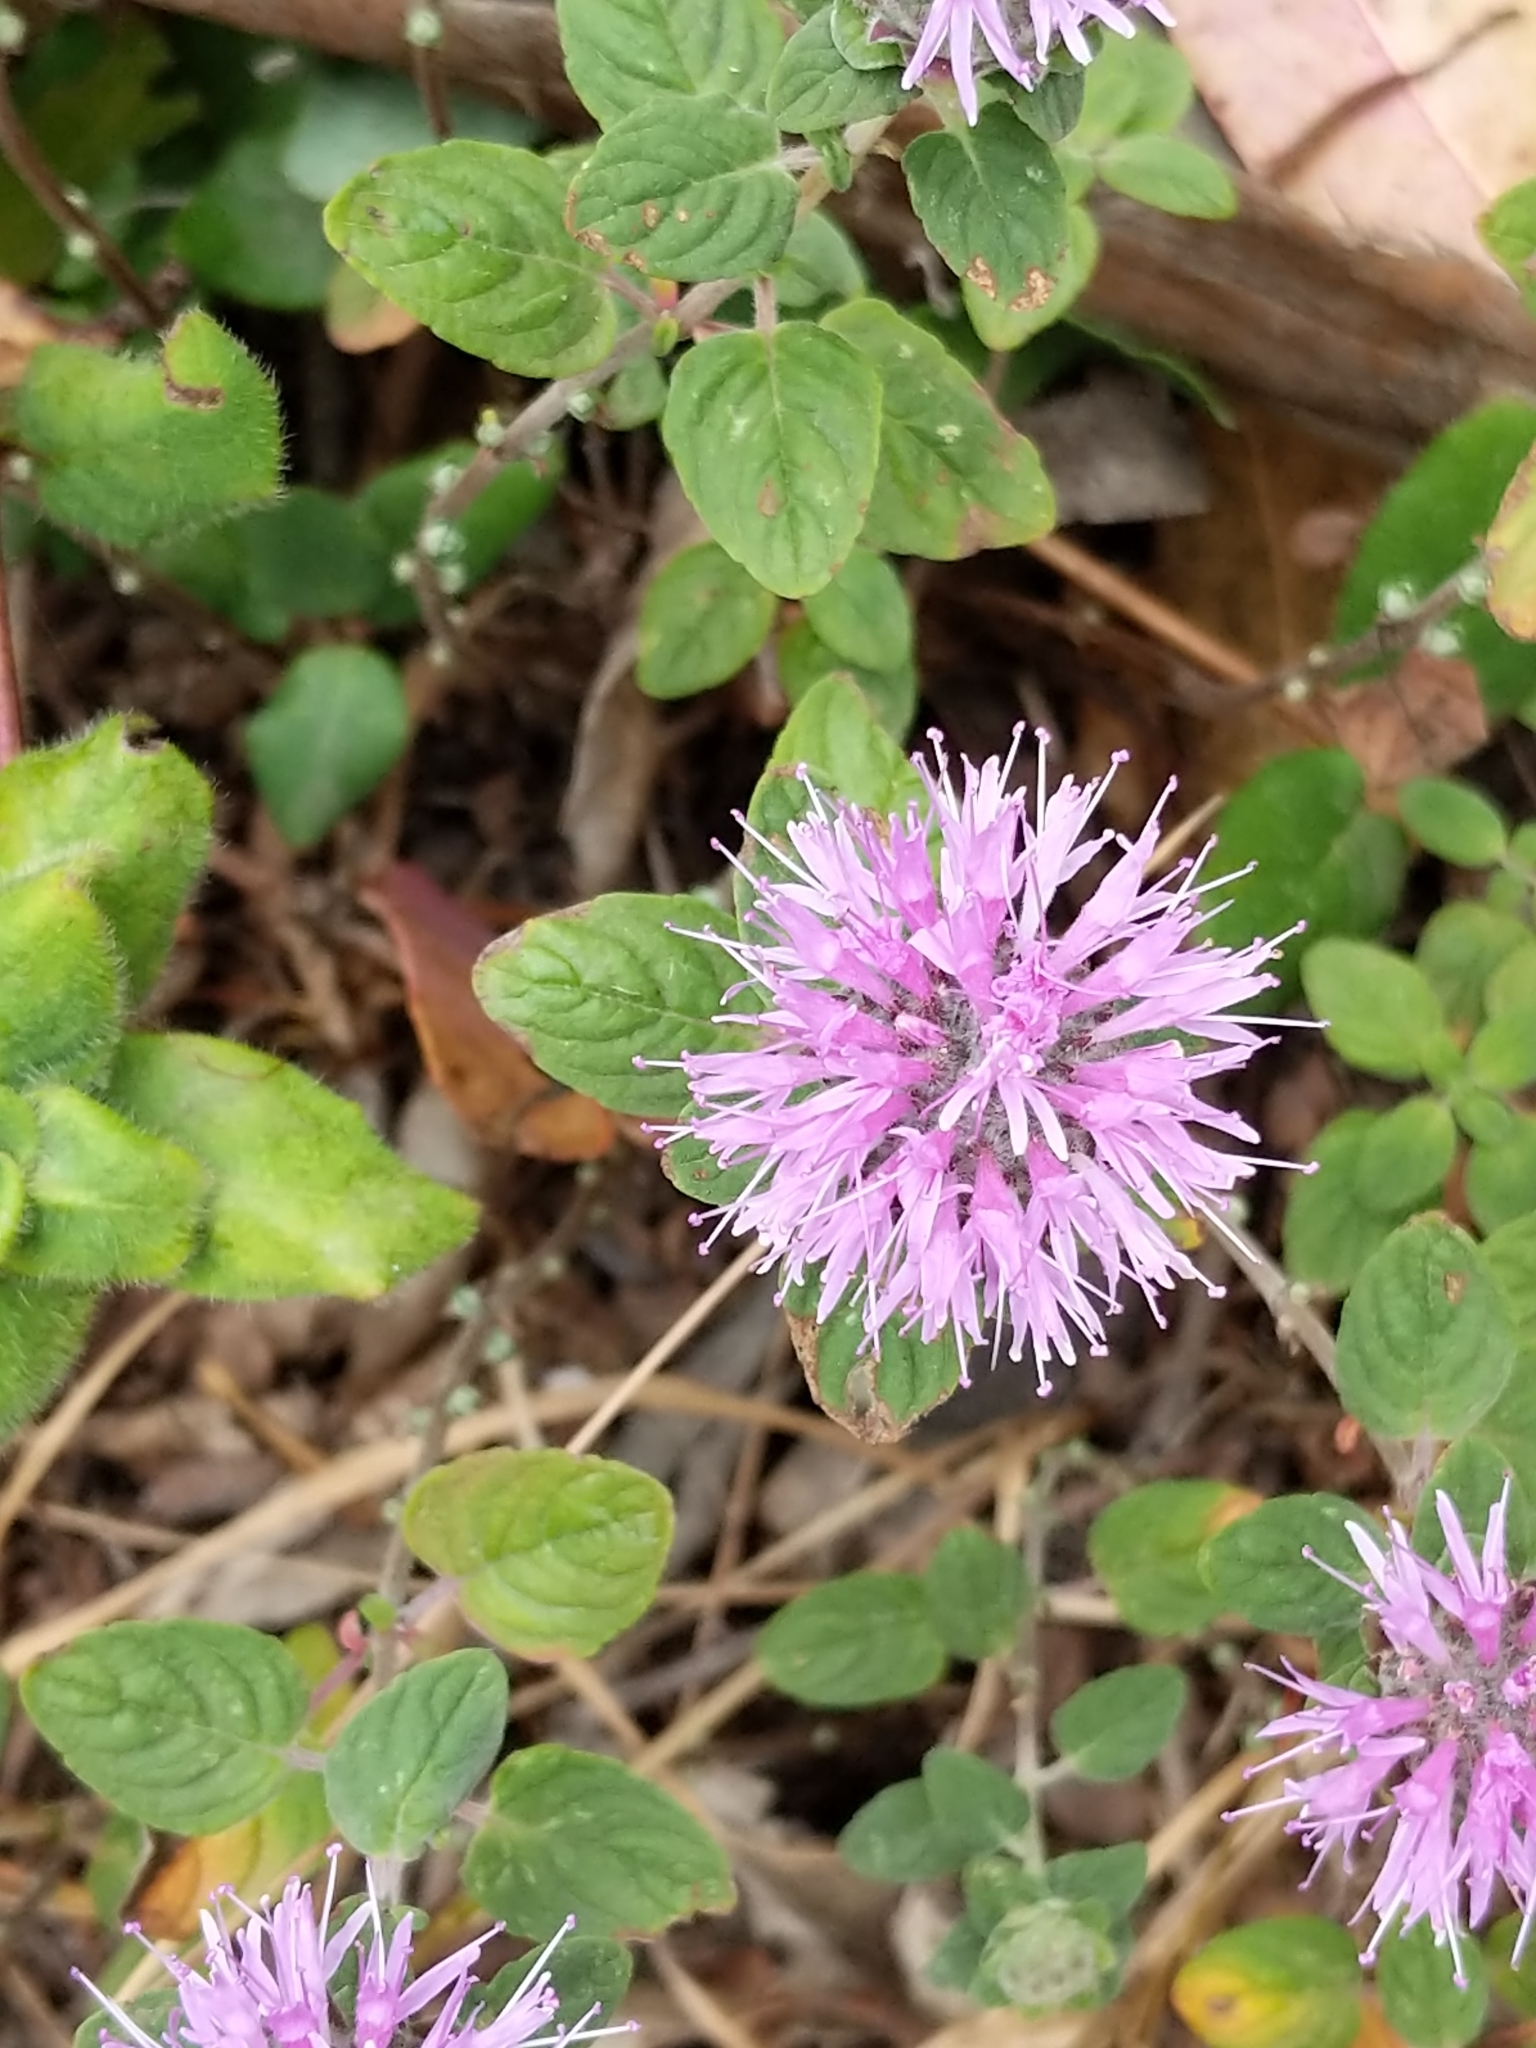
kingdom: Plantae
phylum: Tracheophyta
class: Magnoliopsida
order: Lamiales
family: Lamiaceae
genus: Monardella
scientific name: Monardella odoratissima
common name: Pacific monardella
